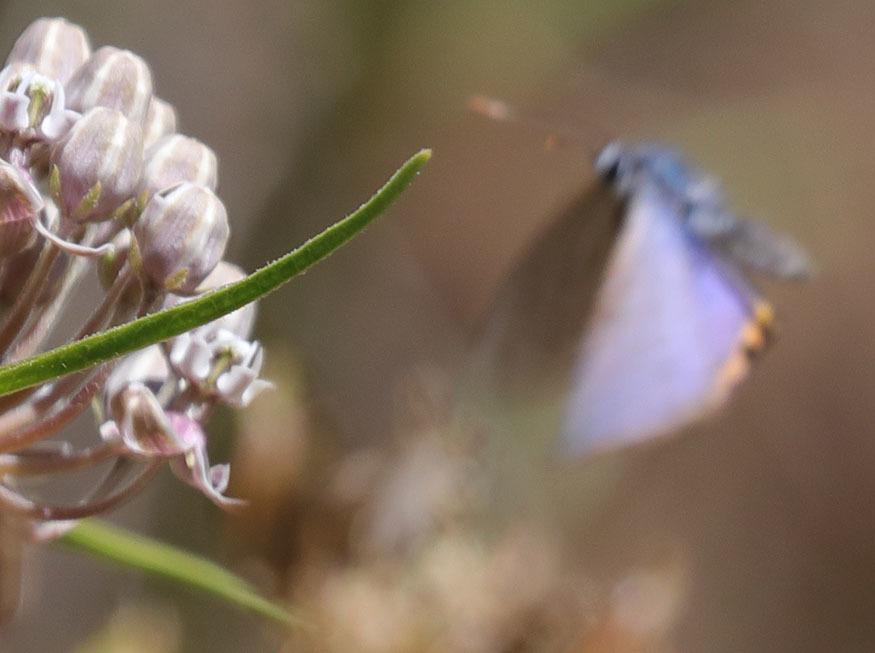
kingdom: Animalia
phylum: Arthropoda
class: Insecta
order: Lepidoptera
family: Lycaenidae
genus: Icaricia
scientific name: Icaricia acmon
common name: Acmon blue
